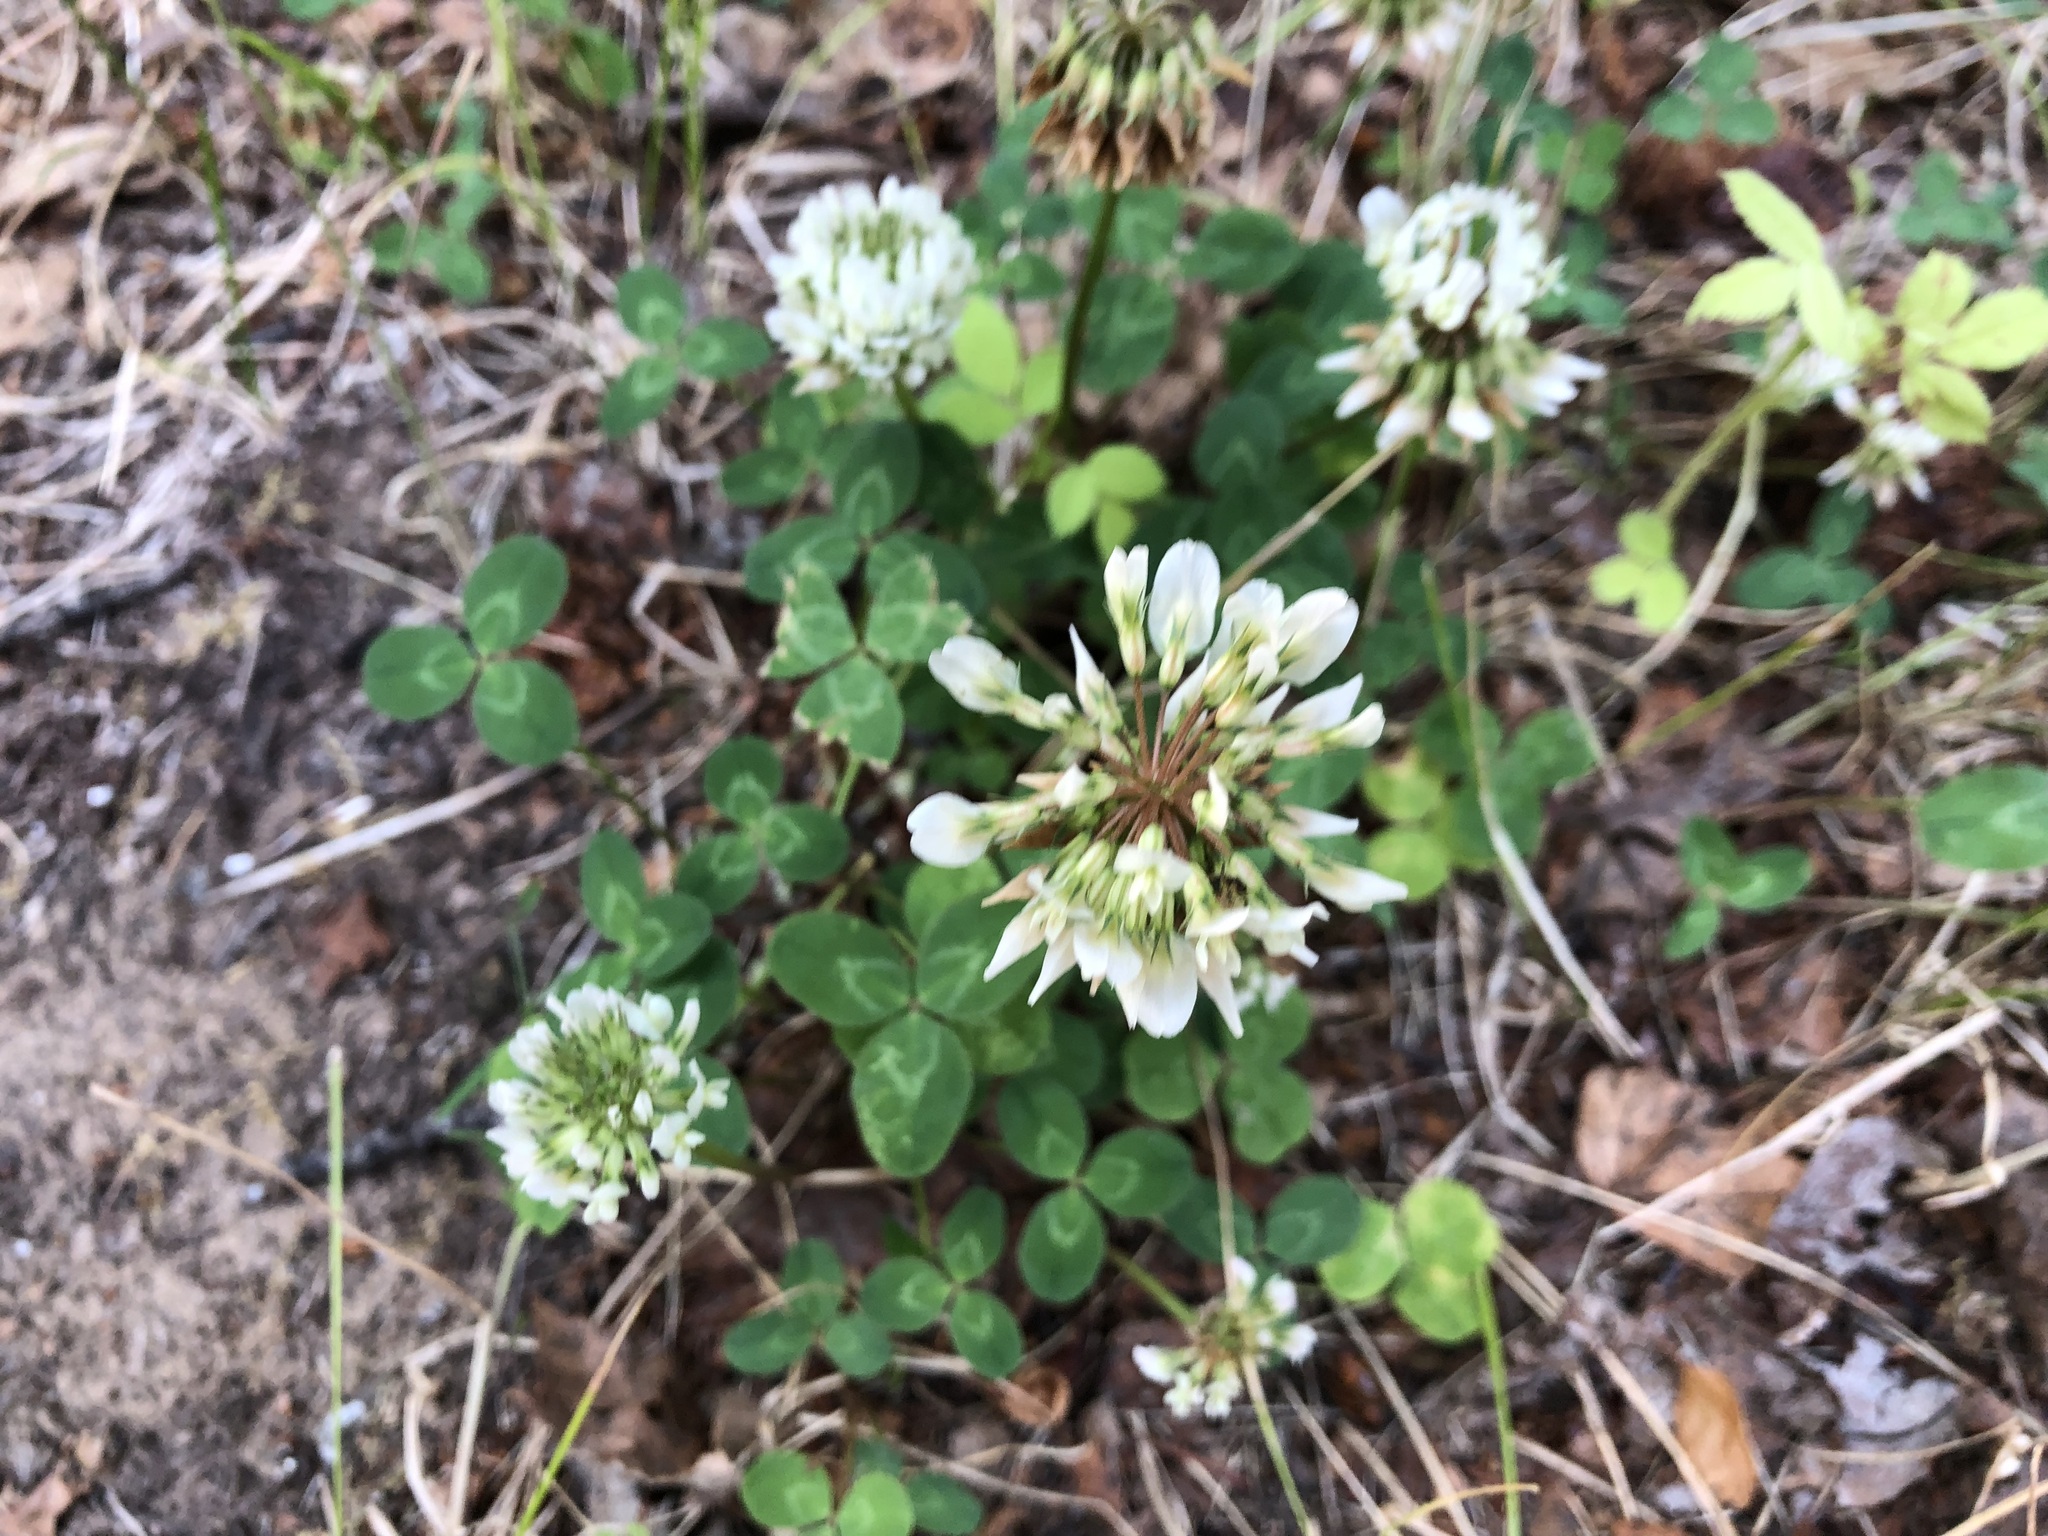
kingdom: Plantae
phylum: Tracheophyta
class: Magnoliopsida
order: Fabales
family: Fabaceae
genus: Trifolium
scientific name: Trifolium repens
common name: White clover
